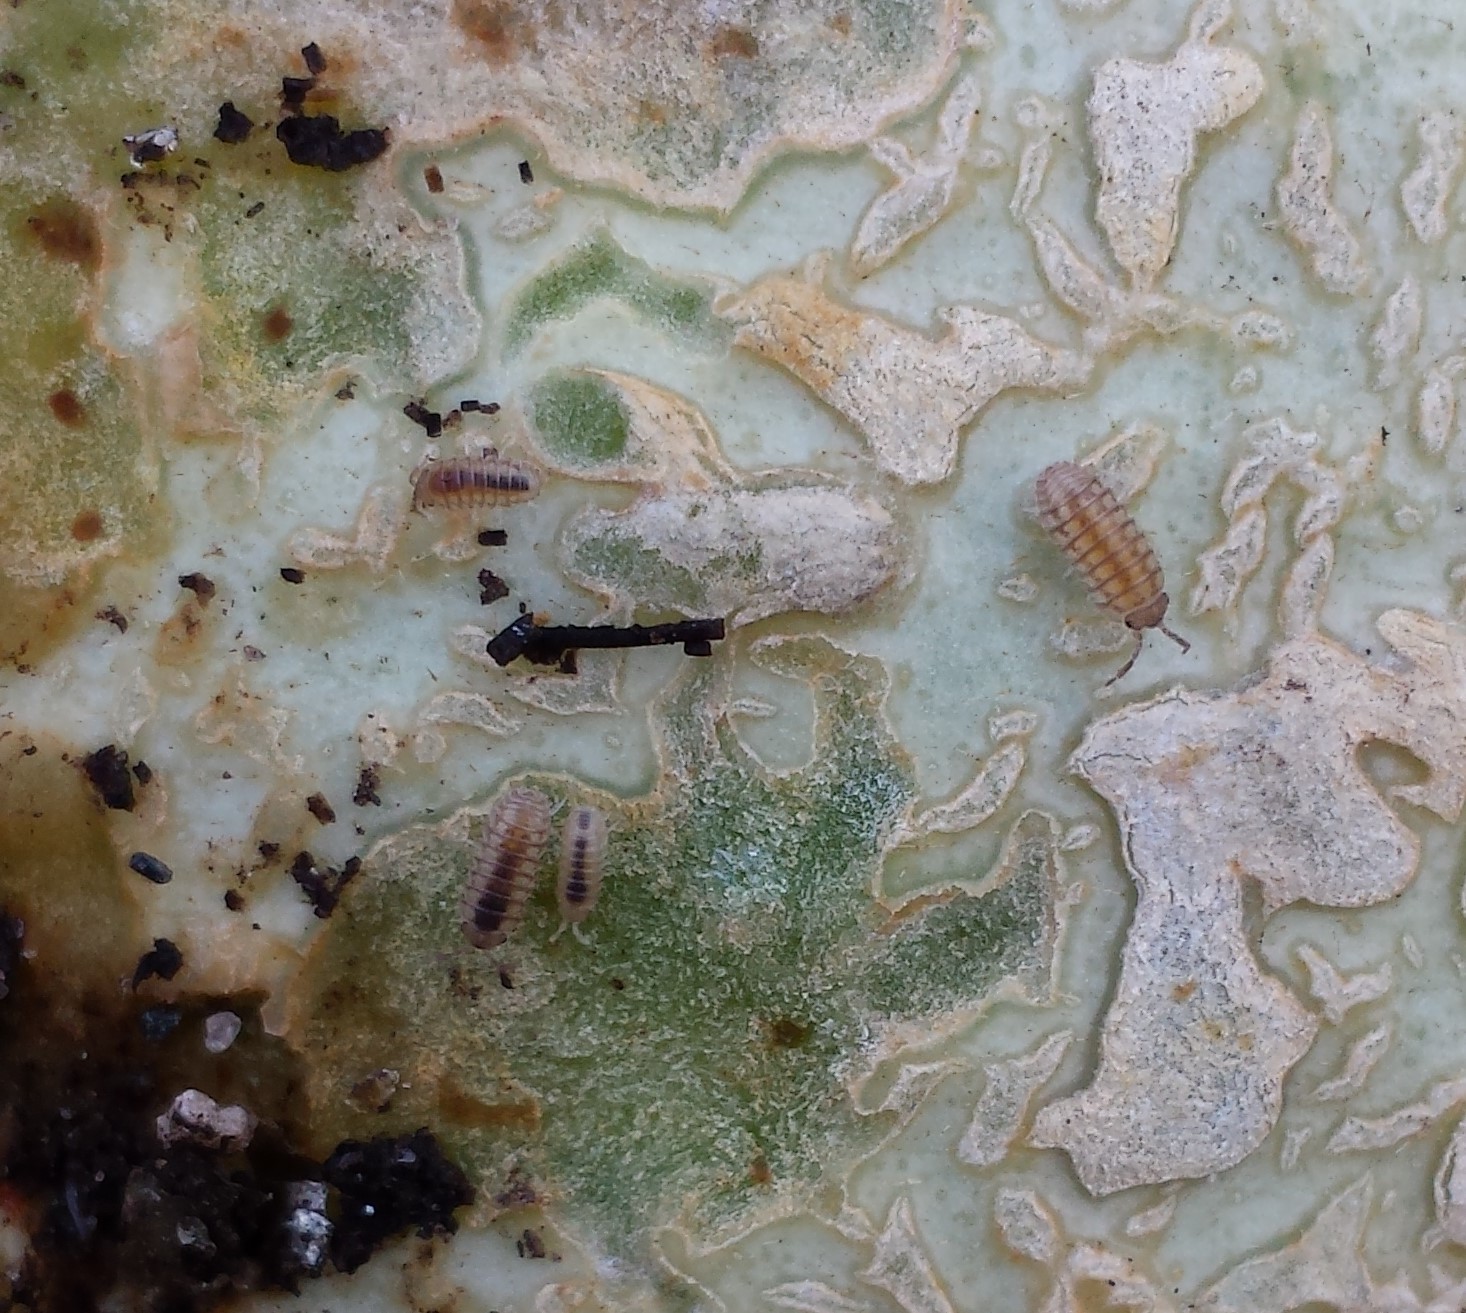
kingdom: Animalia
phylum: Arthropoda
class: Malacostraca
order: Isopoda
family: Armadillidiidae
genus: Armadillidium
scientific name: Armadillidium nasatum
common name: Isopod
